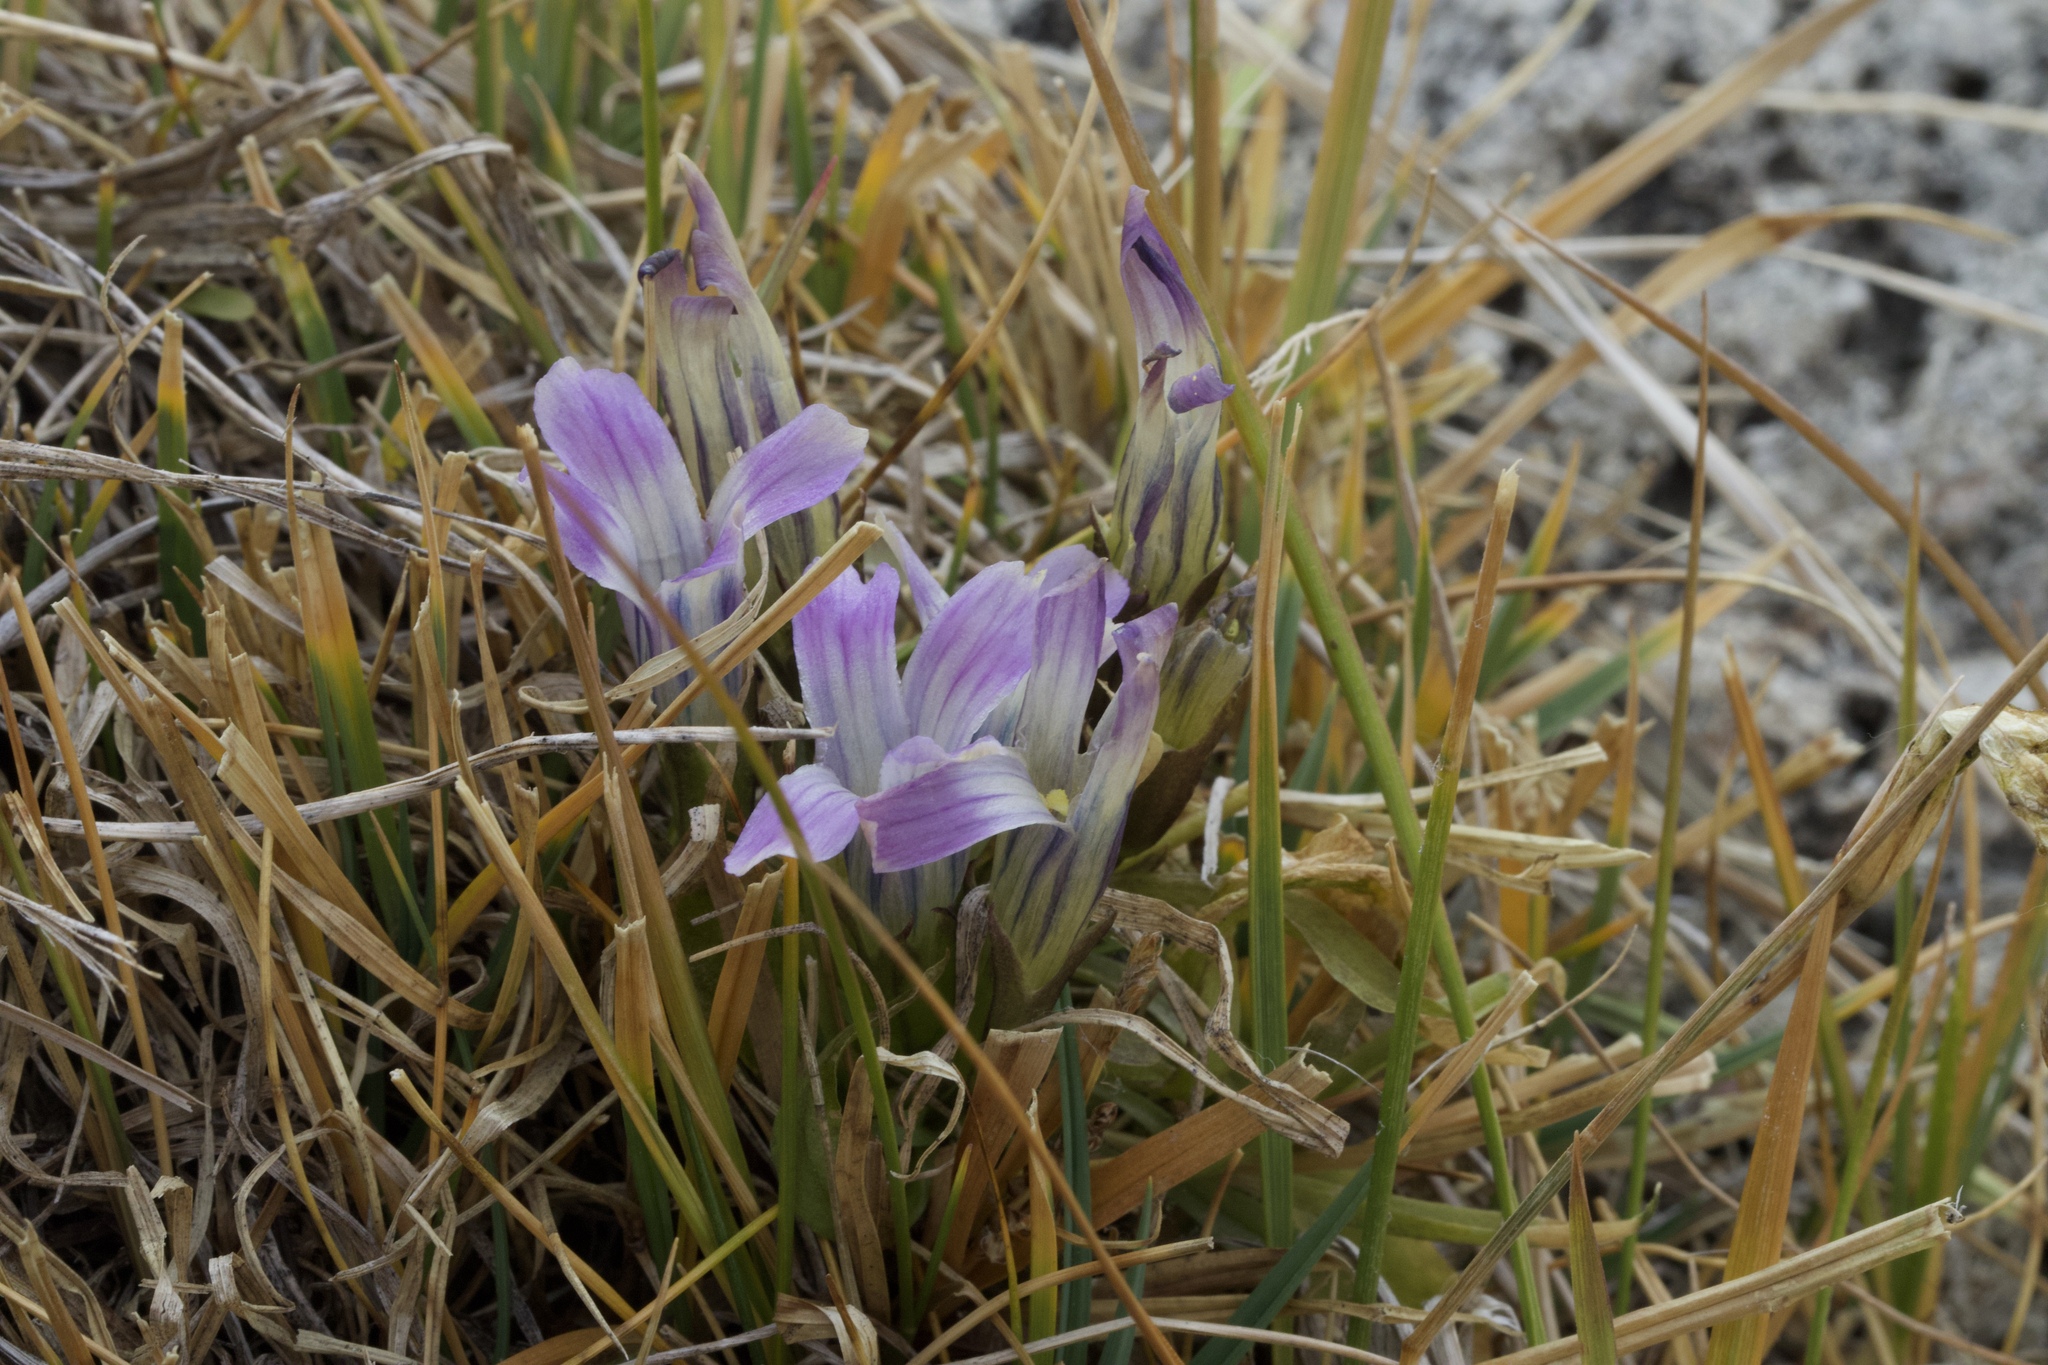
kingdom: Plantae
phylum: Tracheophyta
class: Magnoliopsida
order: Gentianales
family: Gentianaceae
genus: Gentianopsis
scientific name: Gentianopsis holopetala
